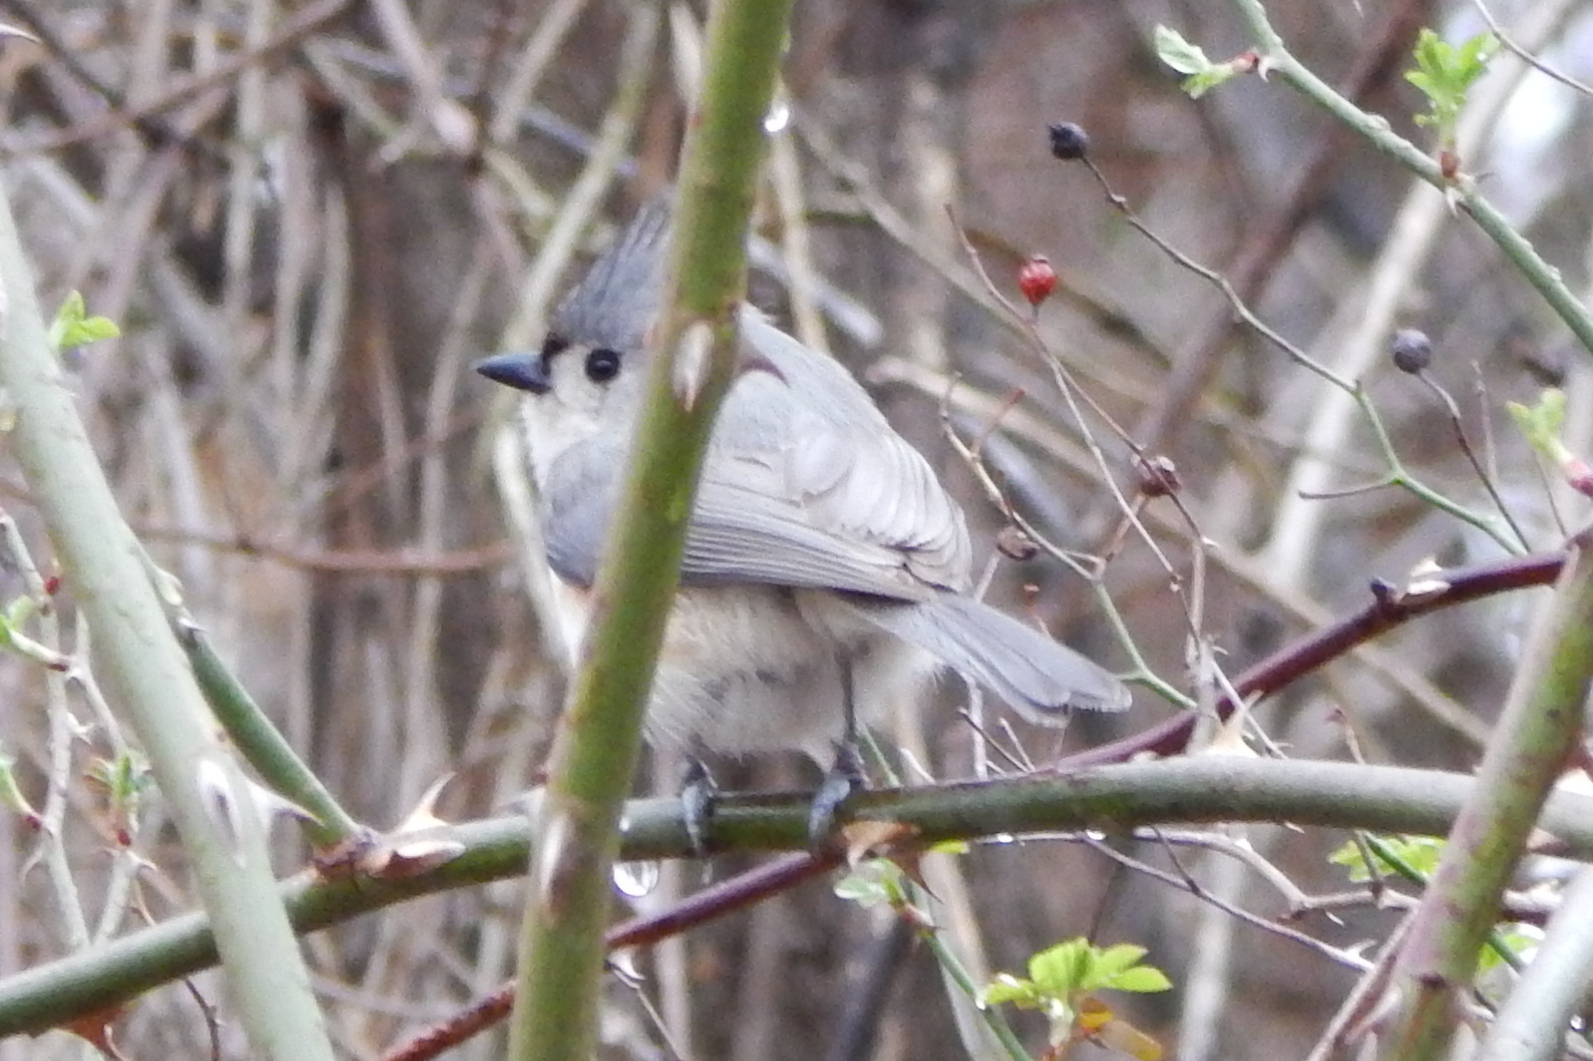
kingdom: Animalia
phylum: Chordata
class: Aves
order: Passeriformes
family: Paridae
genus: Baeolophus
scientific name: Baeolophus bicolor
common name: Tufted titmouse
